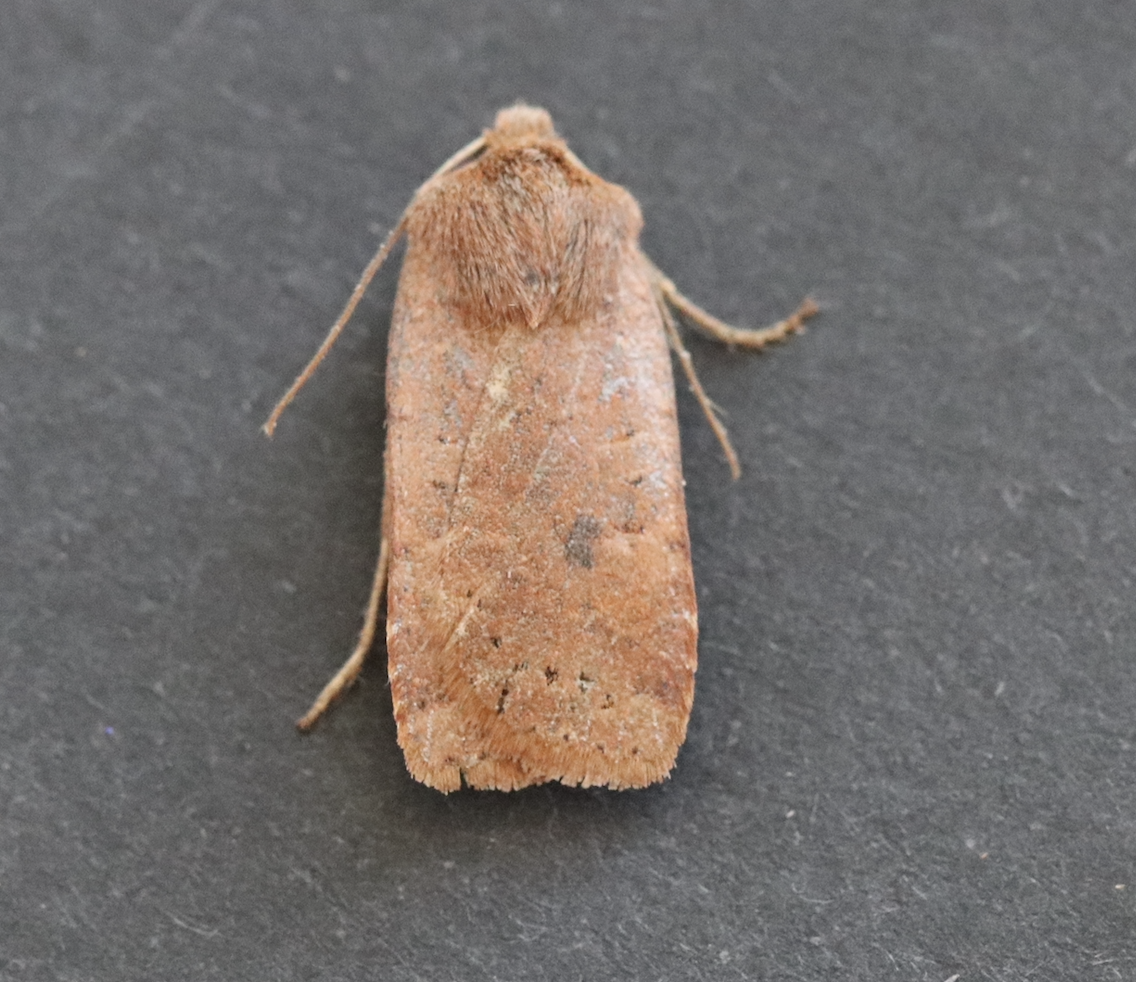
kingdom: Animalia
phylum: Arthropoda
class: Insecta
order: Lepidoptera
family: Noctuidae
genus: Conistra
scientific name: Conistra vaccinii
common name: Chestnut
